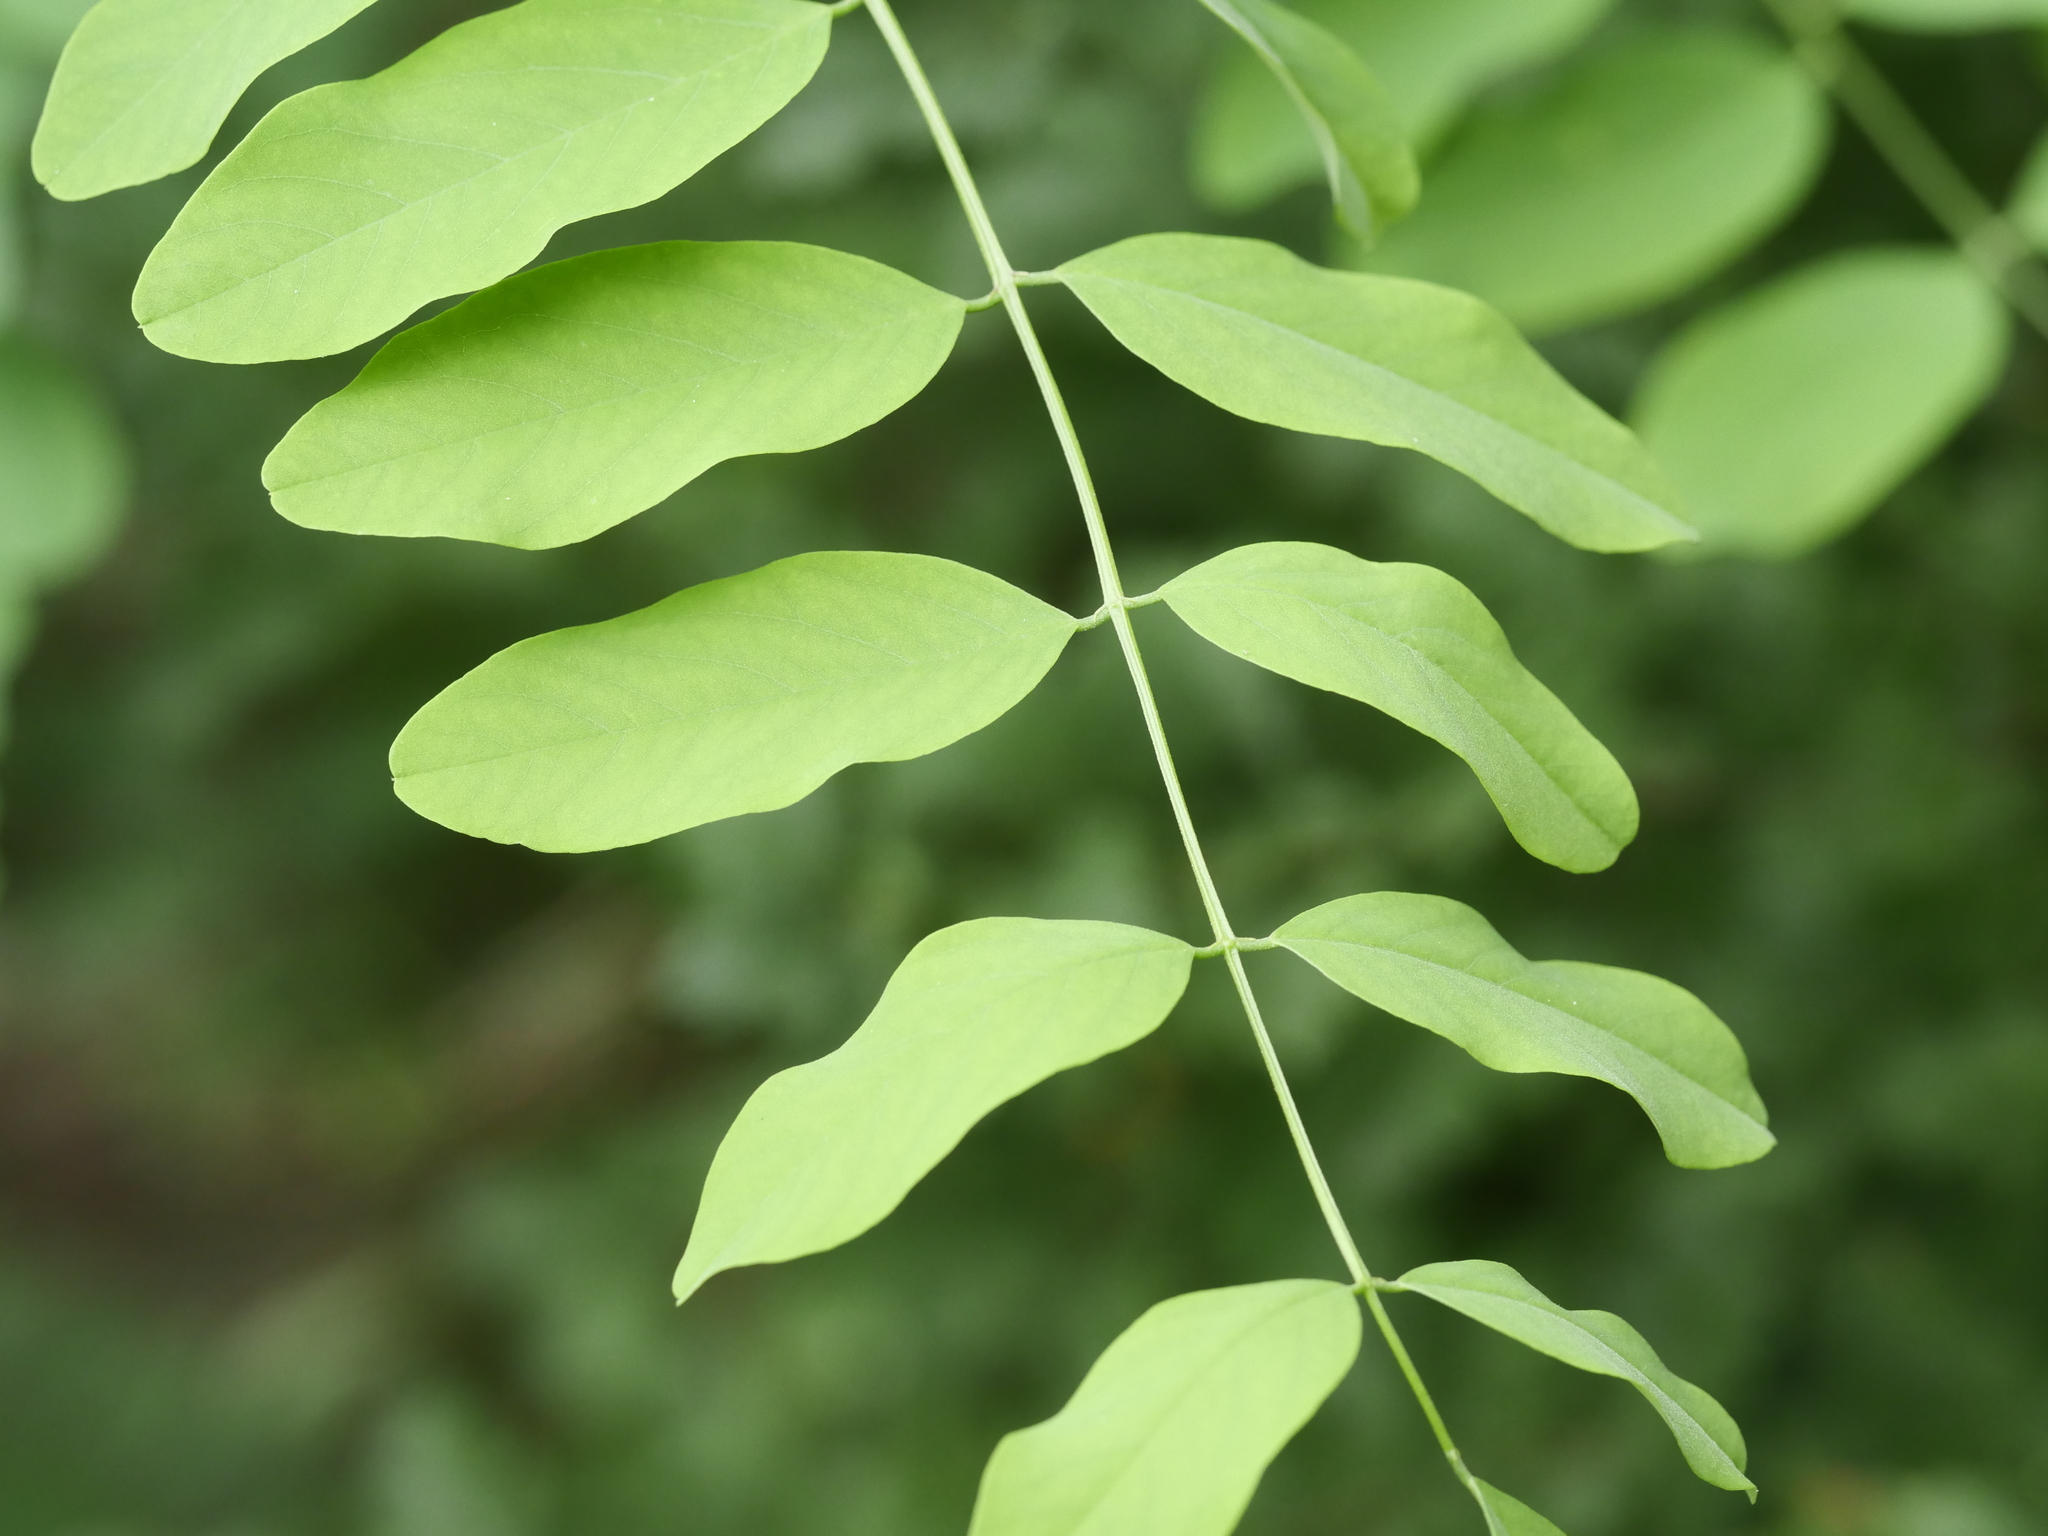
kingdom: Plantae
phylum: Tracheophyta
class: Magnoliopsida
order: Fabales
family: Fabaceae
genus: Robinia
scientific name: Robinia pseudoacacia
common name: Black locust
